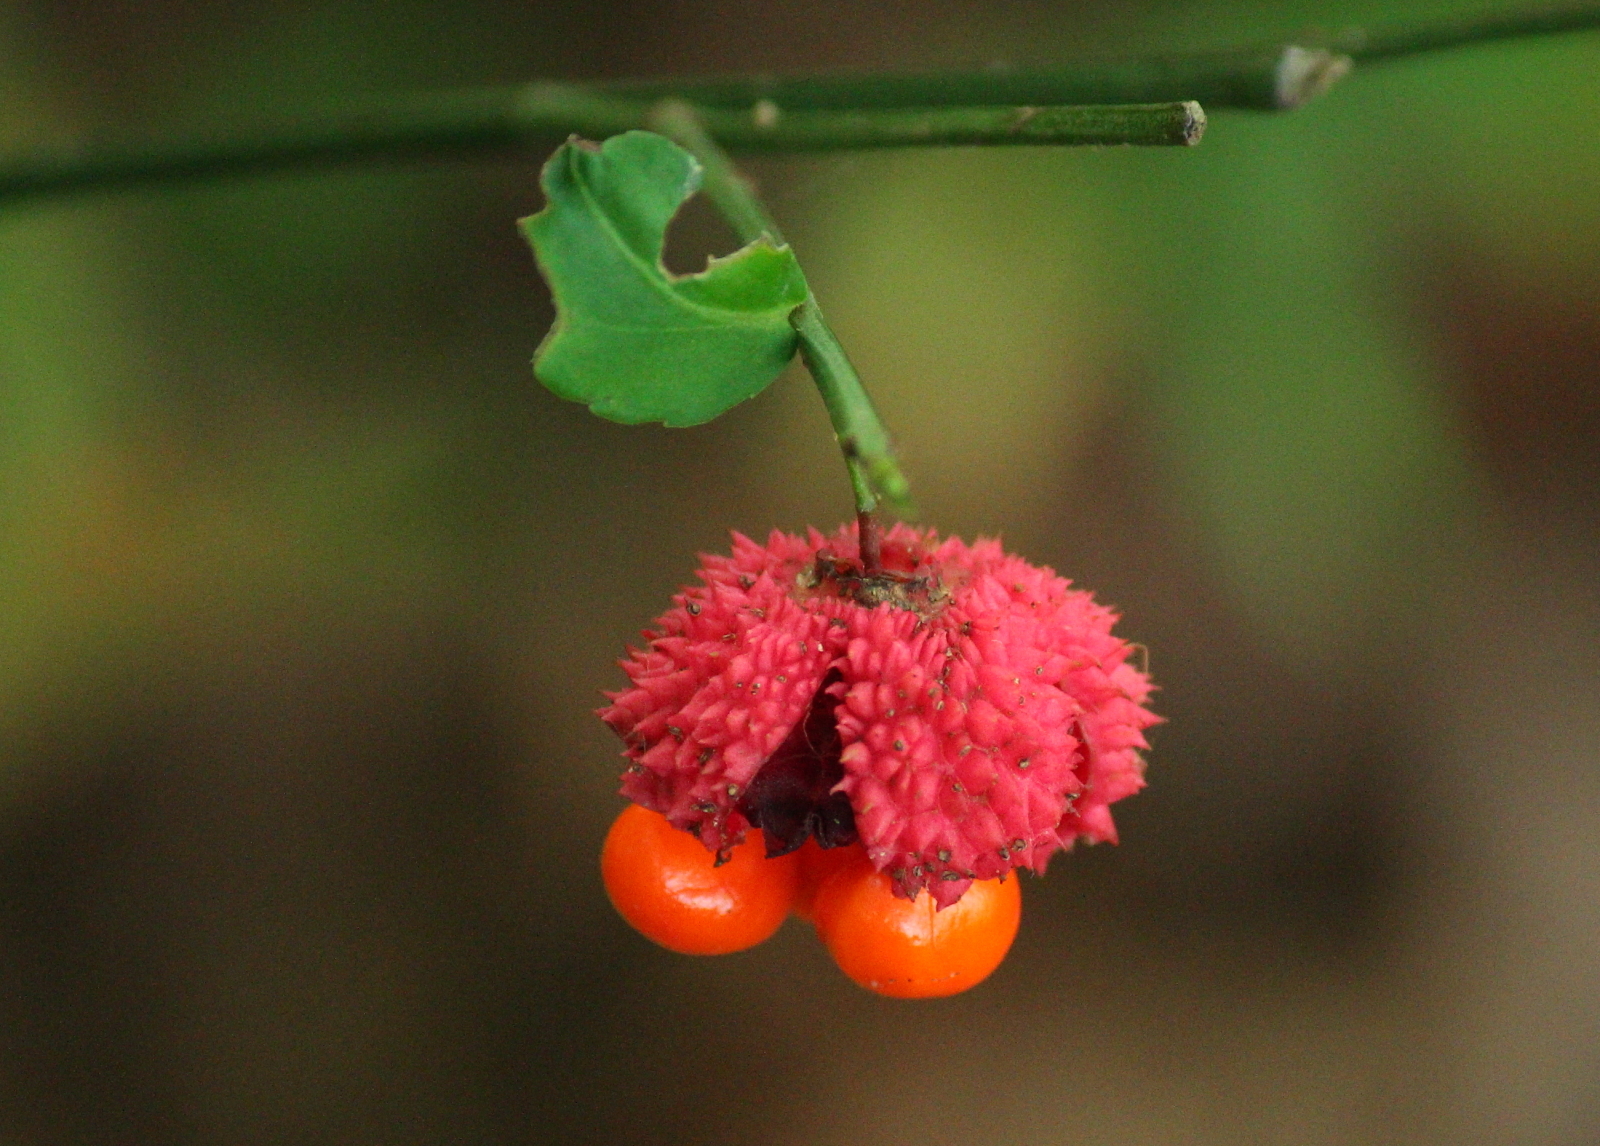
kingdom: Plantae
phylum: Tracheophyta
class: Magnoliopsida
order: Celastrales
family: Celastraceae
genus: Euonymus
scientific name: Euonymus americanus
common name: Bursting-heart
